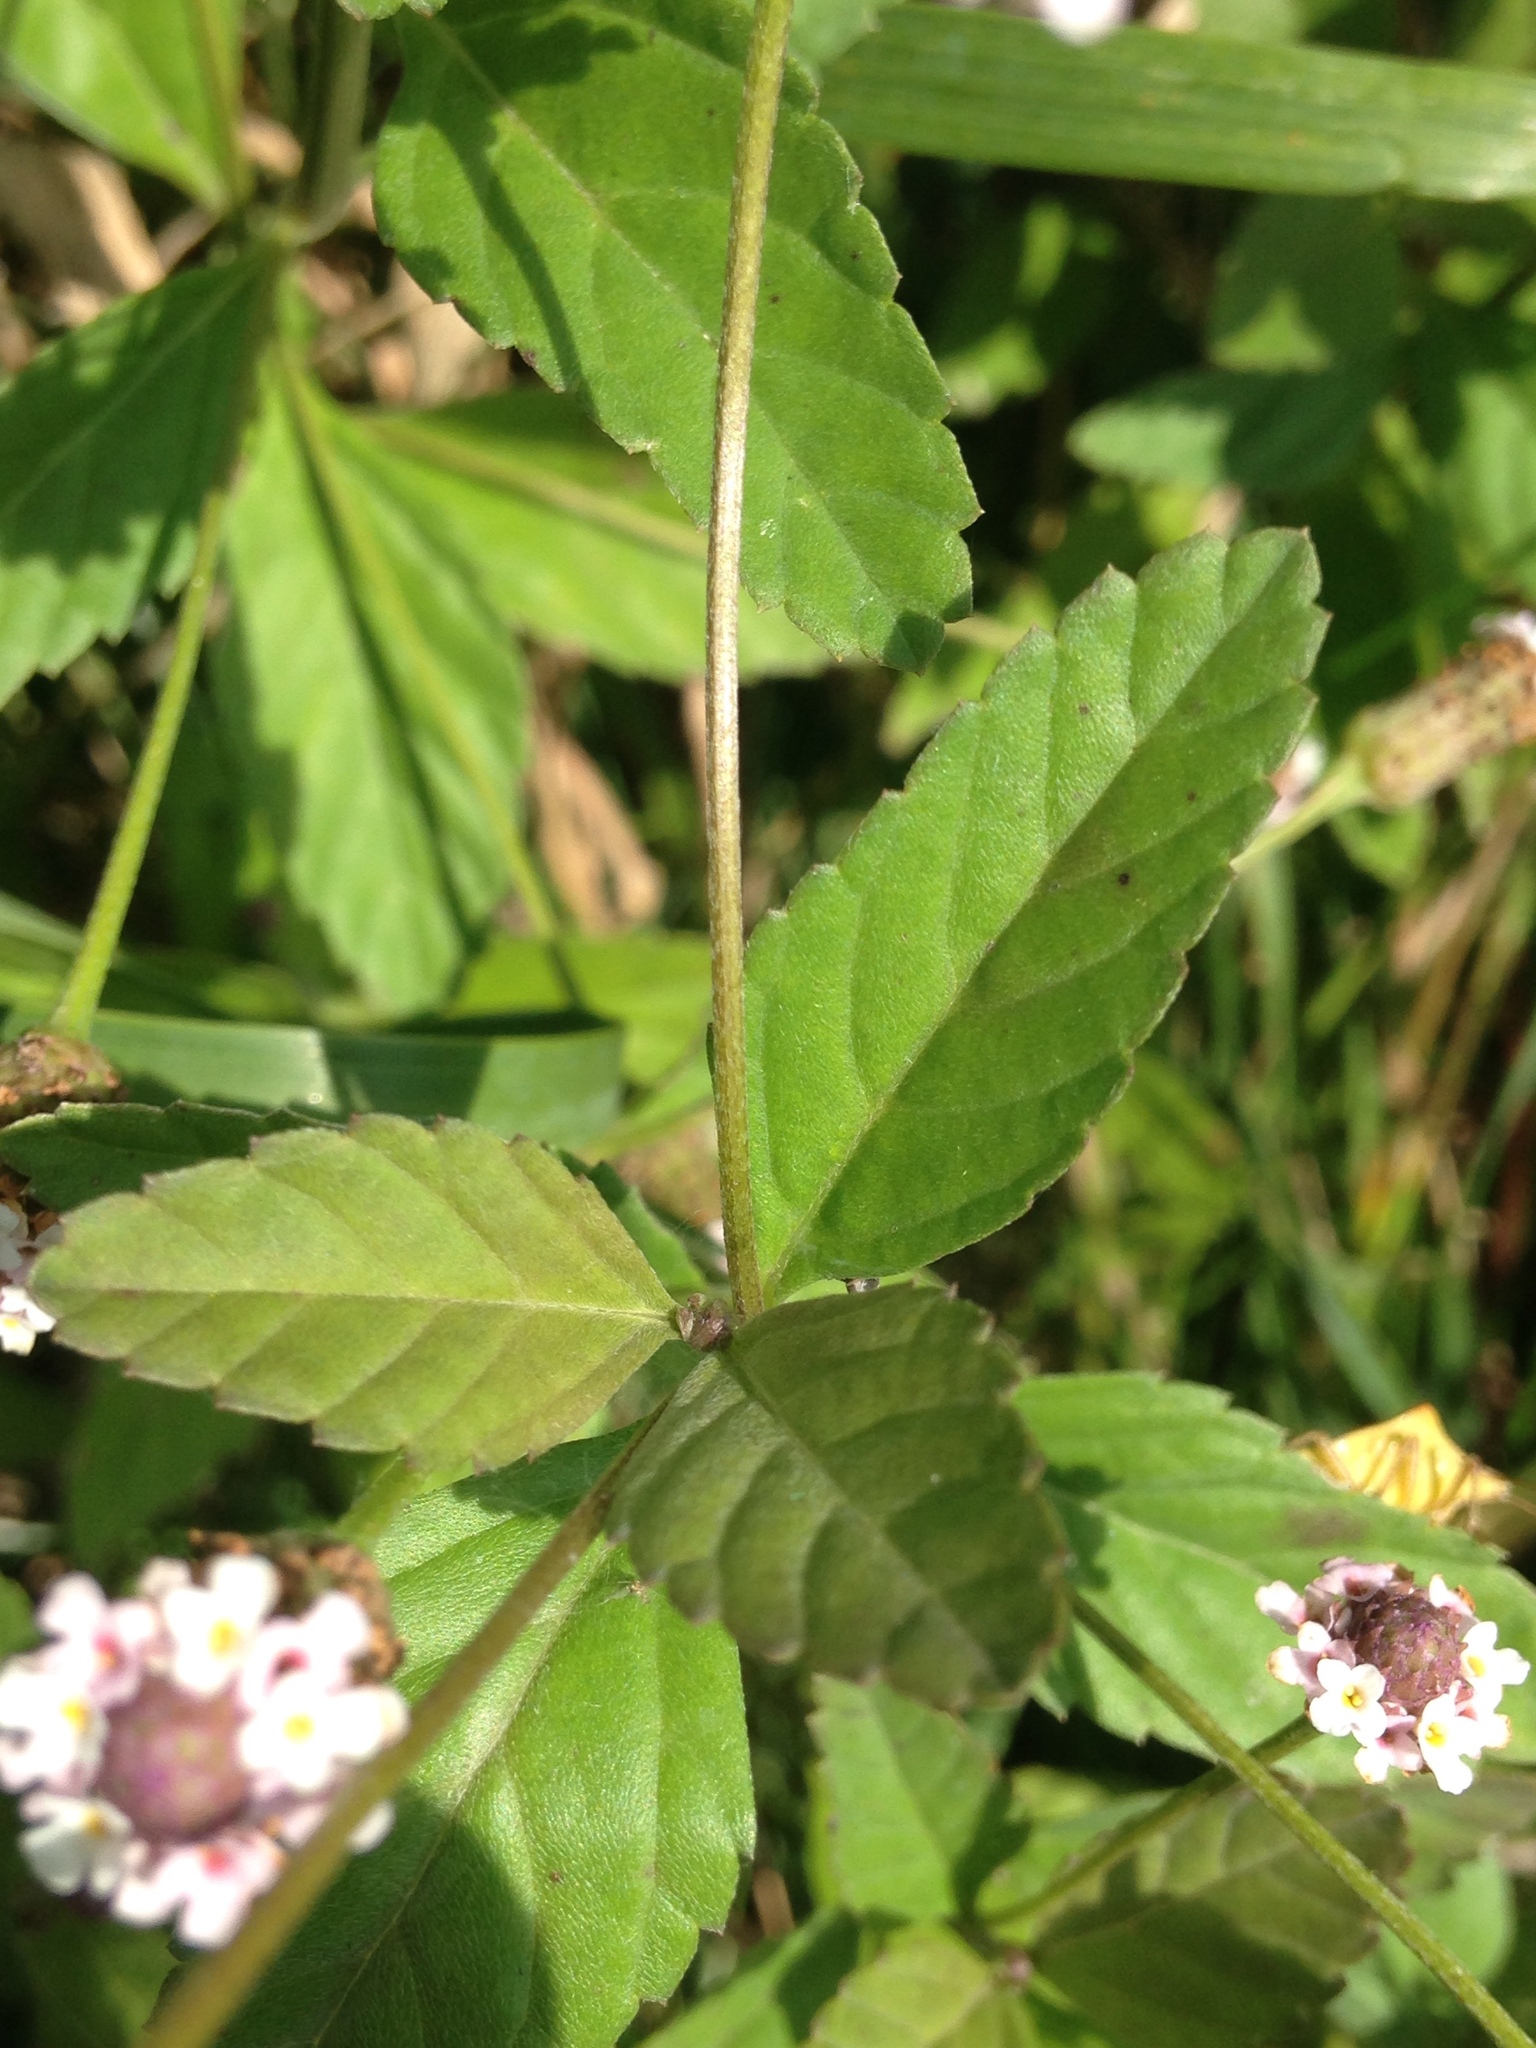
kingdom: Plantae
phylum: Tracheophyta
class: Magnoliopsida
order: Lamiales
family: Verbenaceae
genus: Phyla
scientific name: Phyla lanceolata
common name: Northern fogfruit
